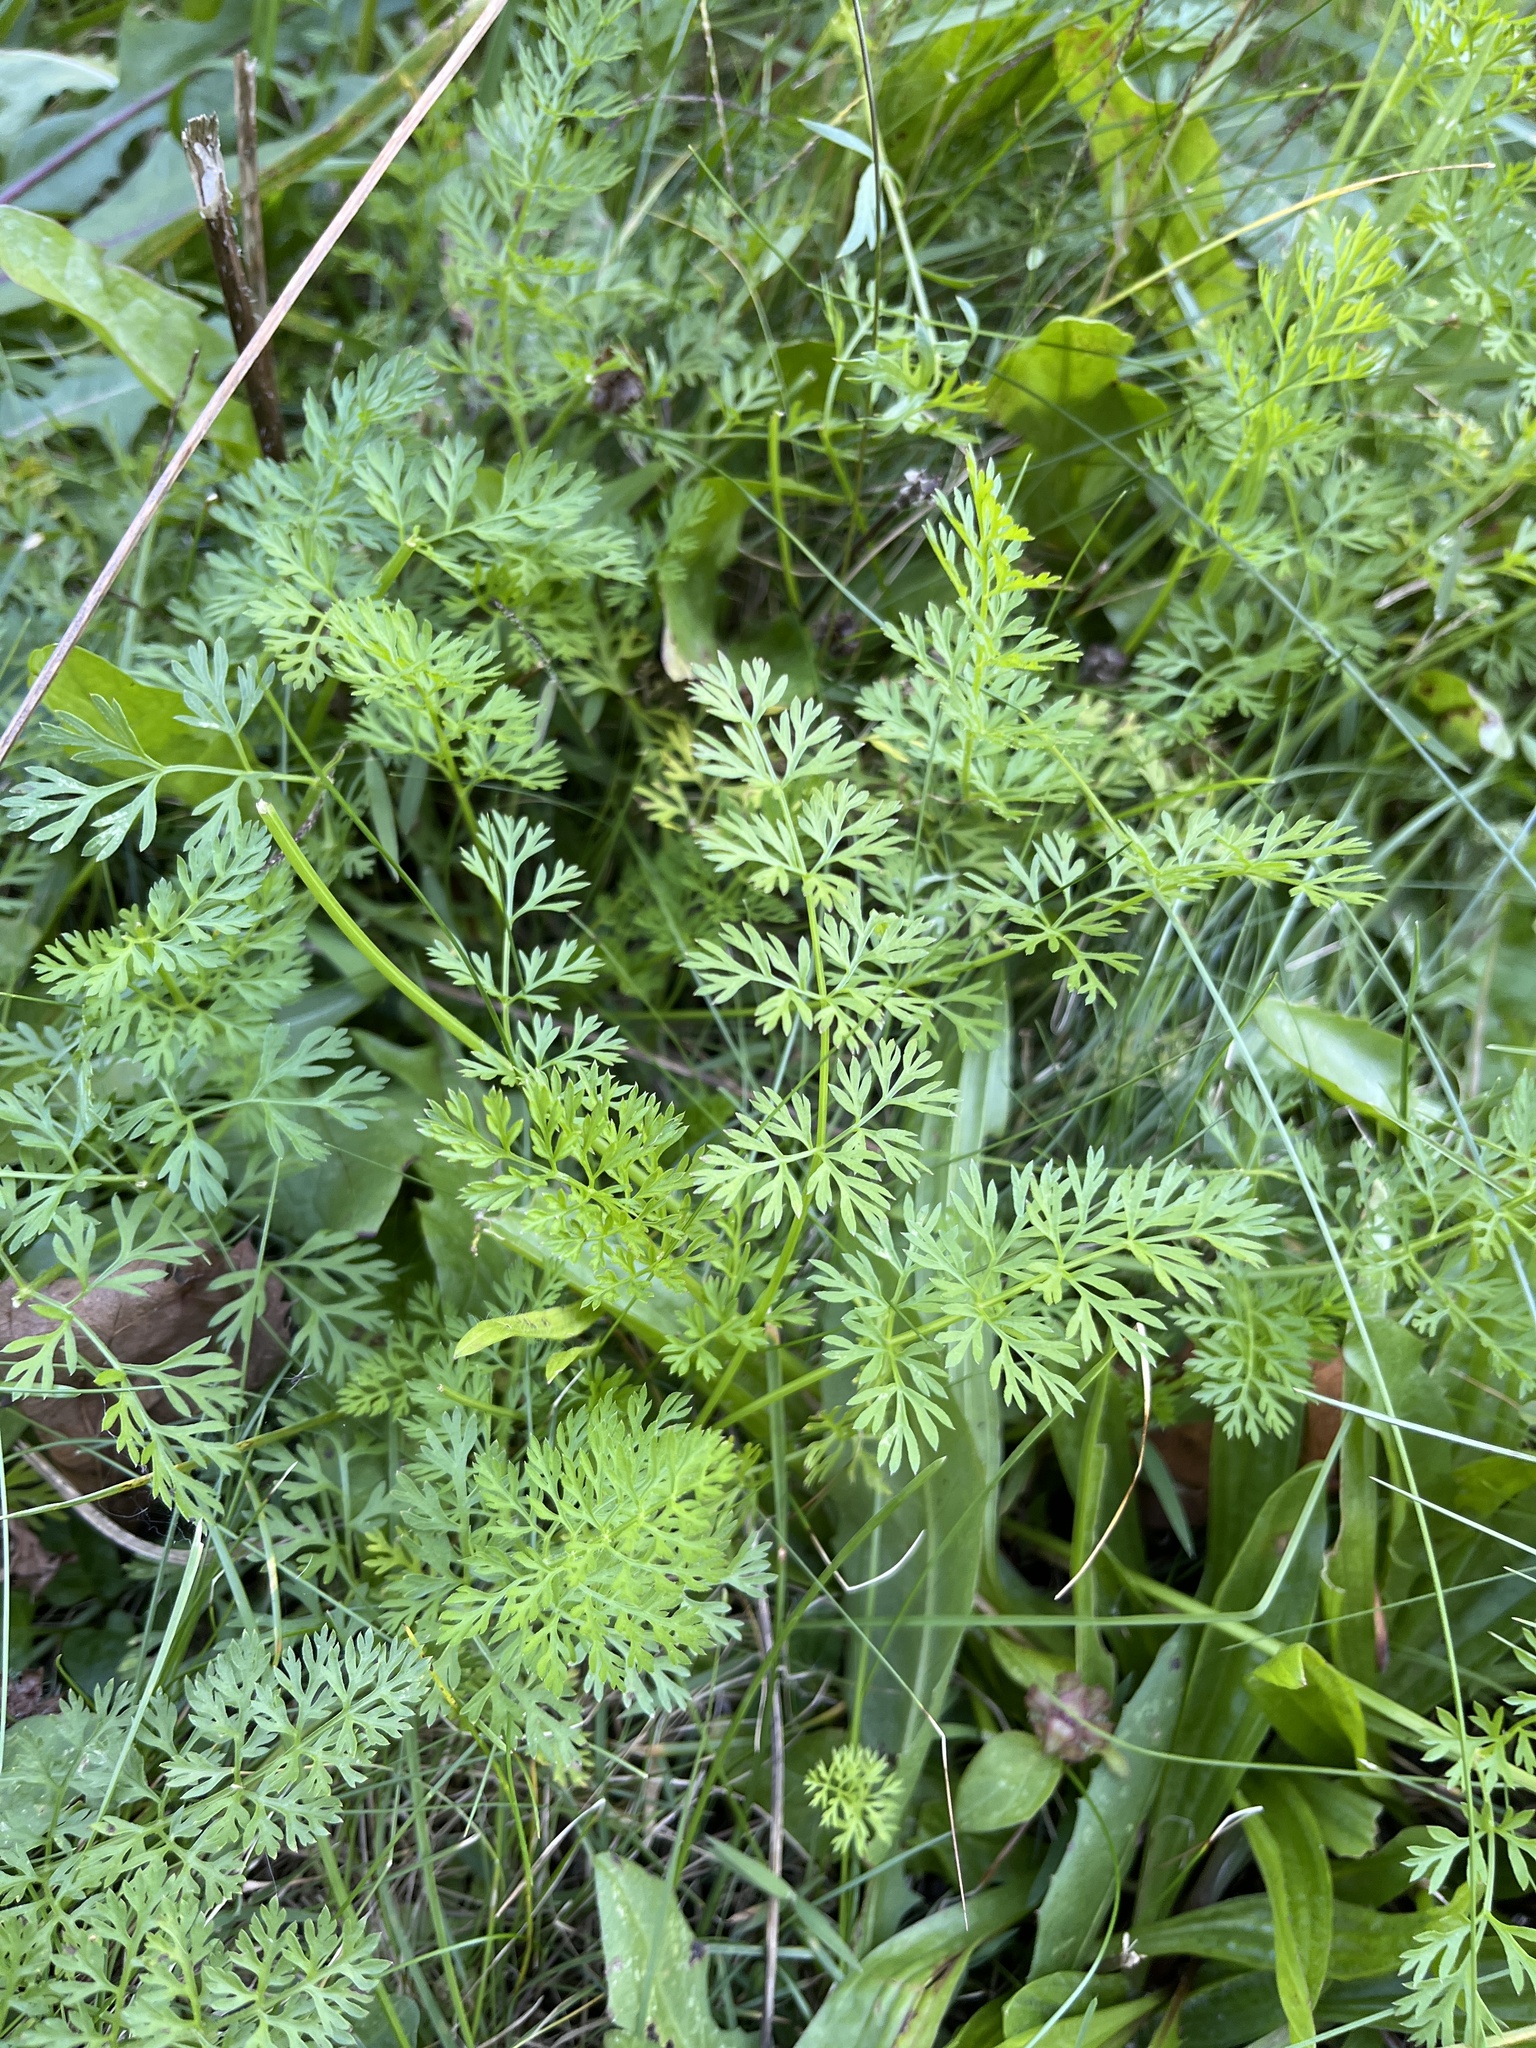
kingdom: Plantae
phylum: Tracheophyta
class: Magnoliopsida
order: Apiales
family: Apiaceae
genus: Daucus
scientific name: Daucus carota
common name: Wild carrot
